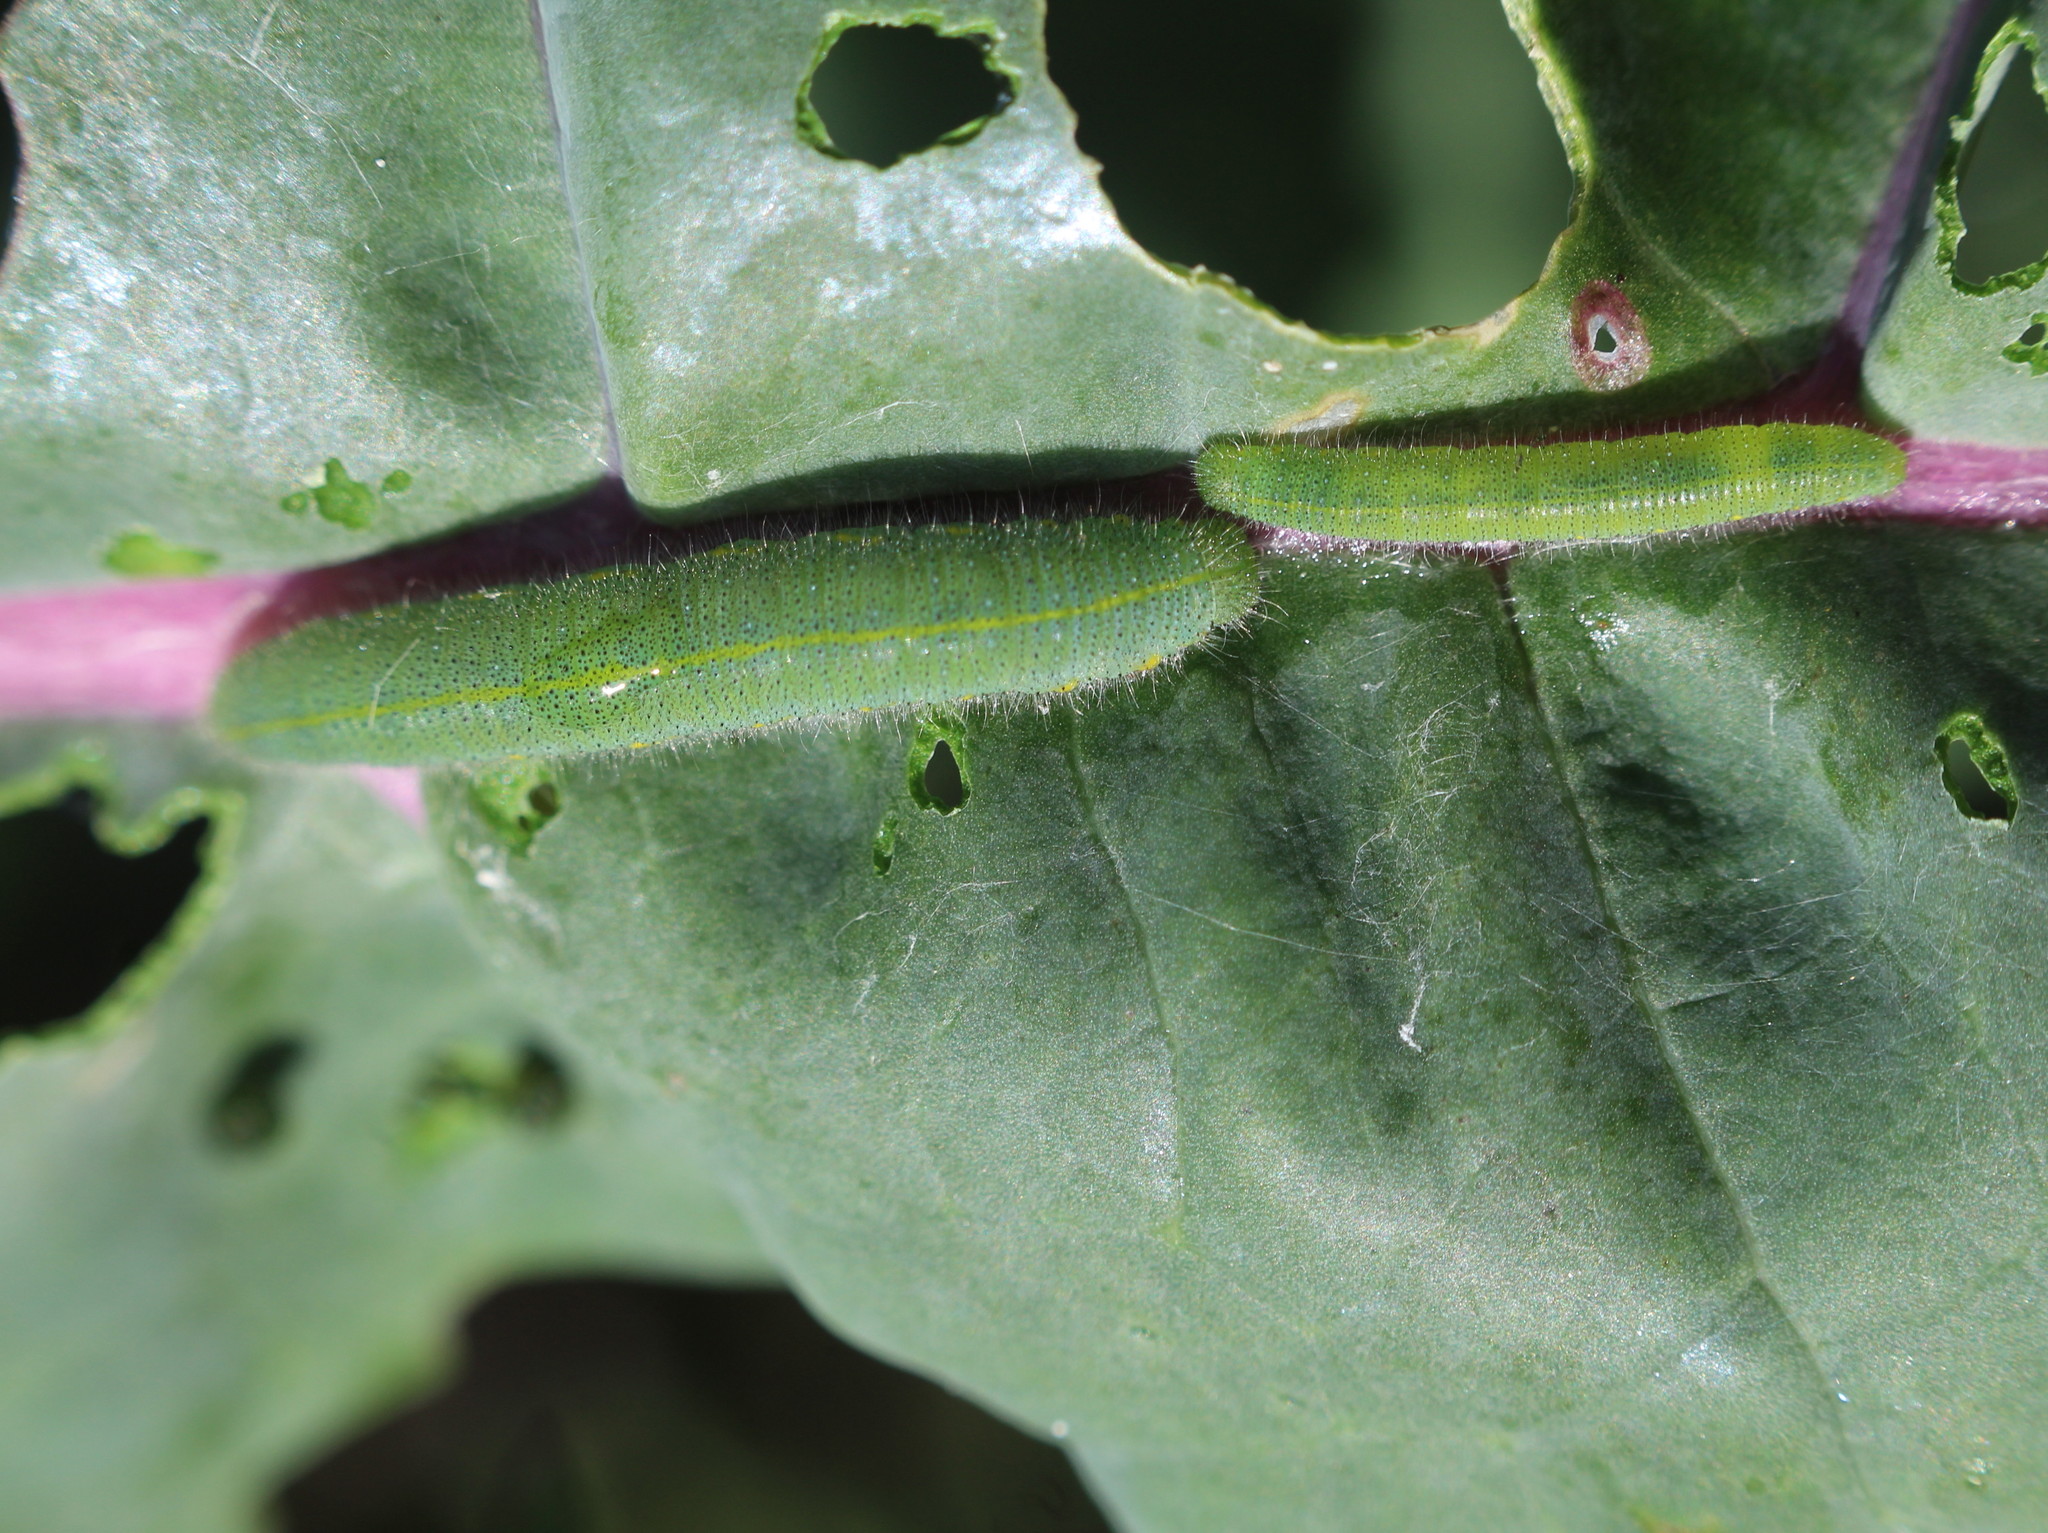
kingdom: Animalia
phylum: Arthropoda
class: Insecta
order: Lepidoptera
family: Pieridae
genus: Pieris
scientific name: Pieris rapae
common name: Small white
